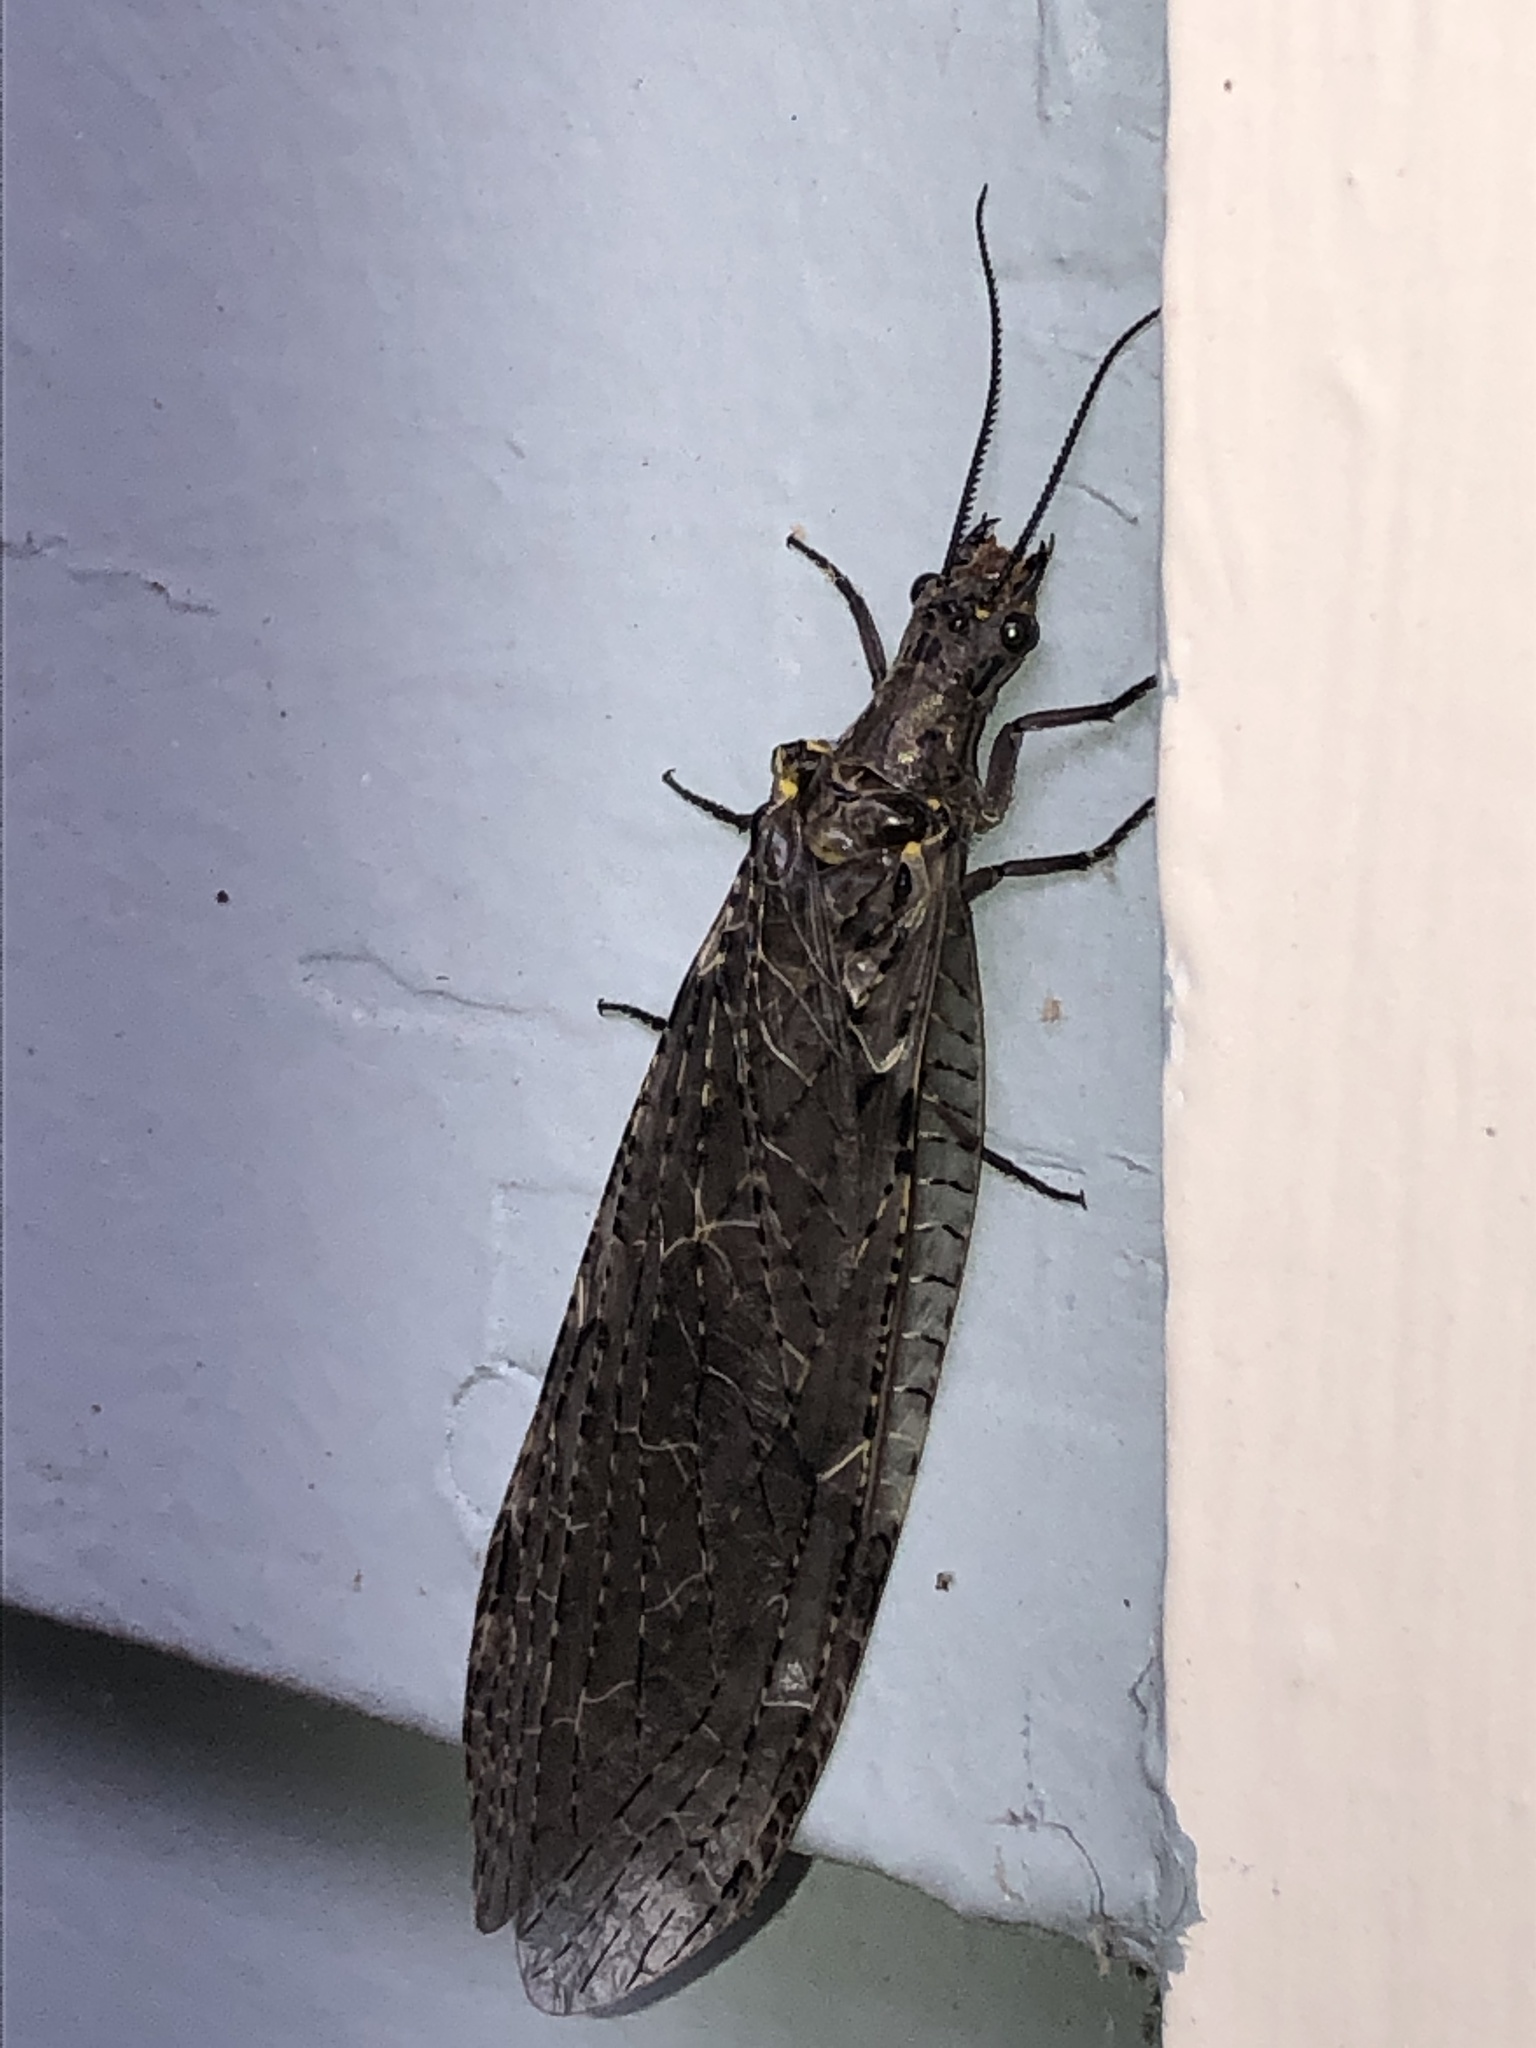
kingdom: Animalia
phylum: Arthropoda
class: Insecta
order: Megaloptera
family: Corydalidae
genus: Chauliodes
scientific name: Chauliodes rastricornis
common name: Spring fishfly
